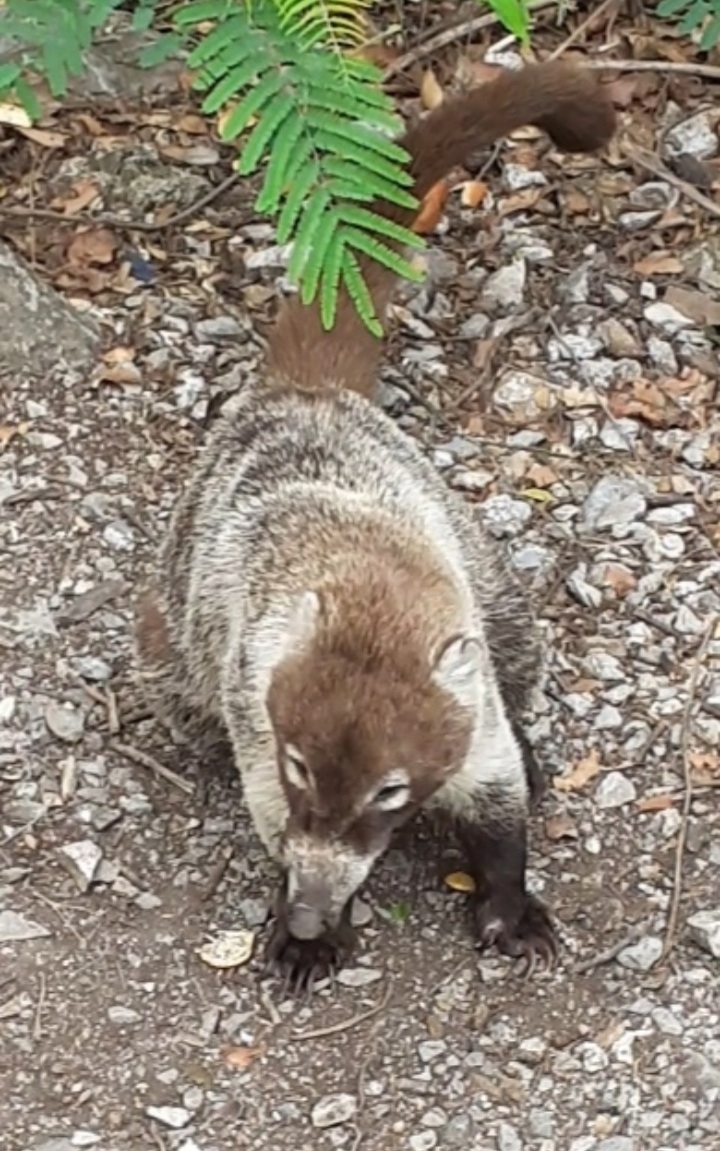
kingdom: Animalia
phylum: Chordata
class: Mammalia
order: Carnivora
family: Procyonidae
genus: Nasua
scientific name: Nasua narica
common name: White-nosed coati
